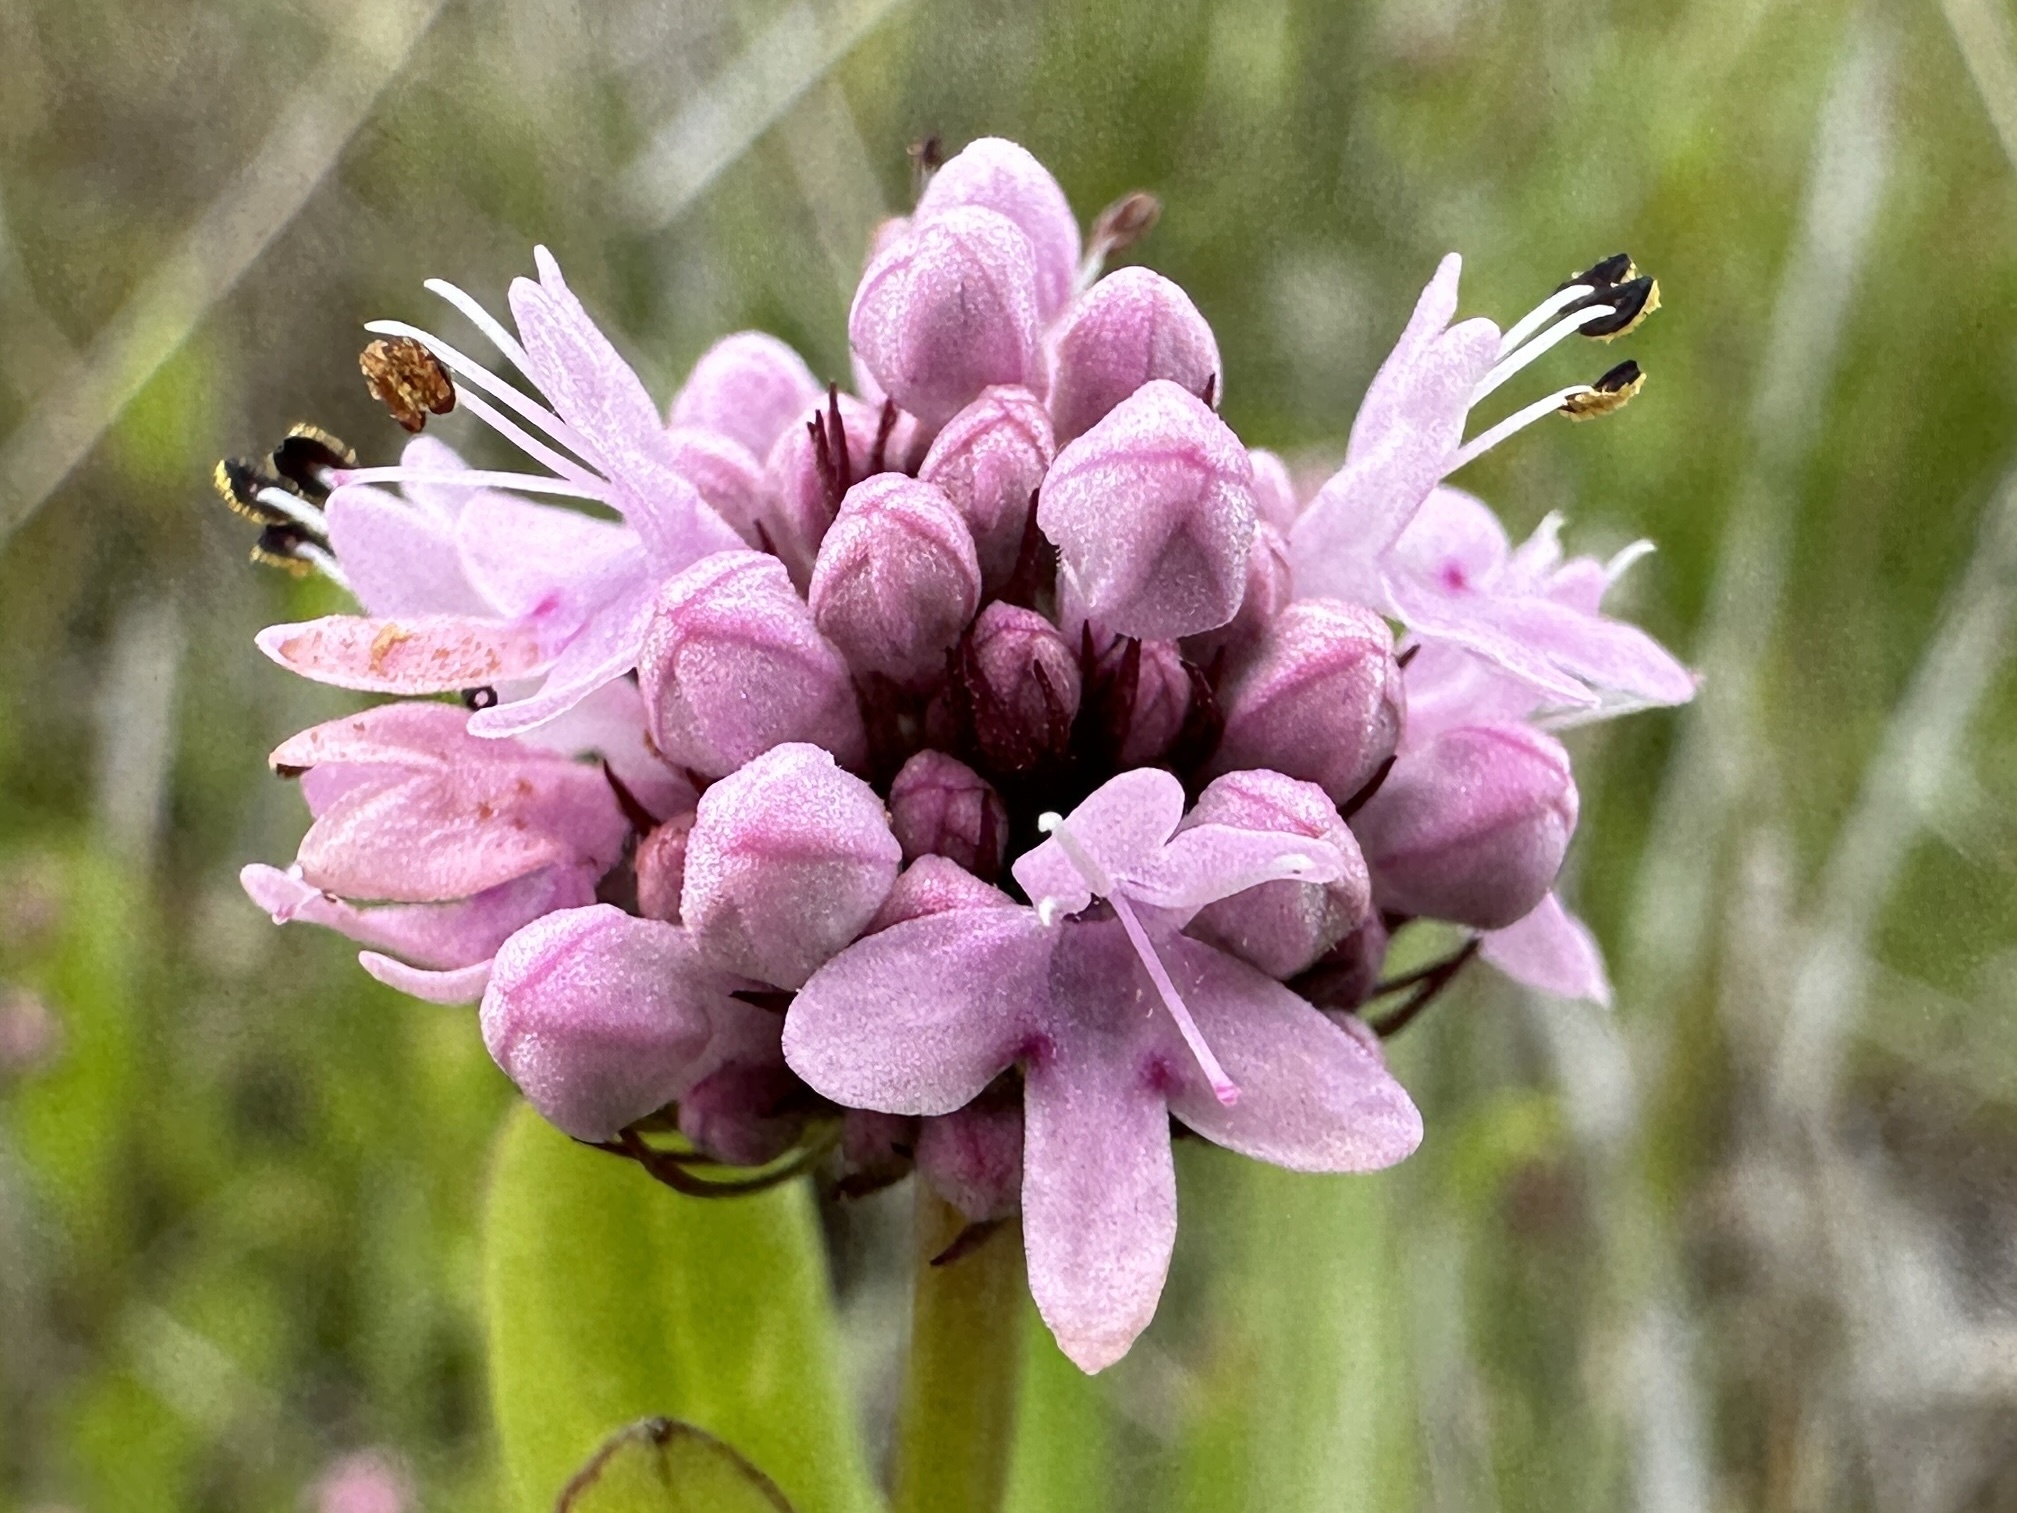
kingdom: Plantae
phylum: Tracheophyta
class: Magnoliopsida
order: Dipsacales
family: Caprifoliaceae
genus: Plectritis
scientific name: Plectritis congesta
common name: Pink plectritis
